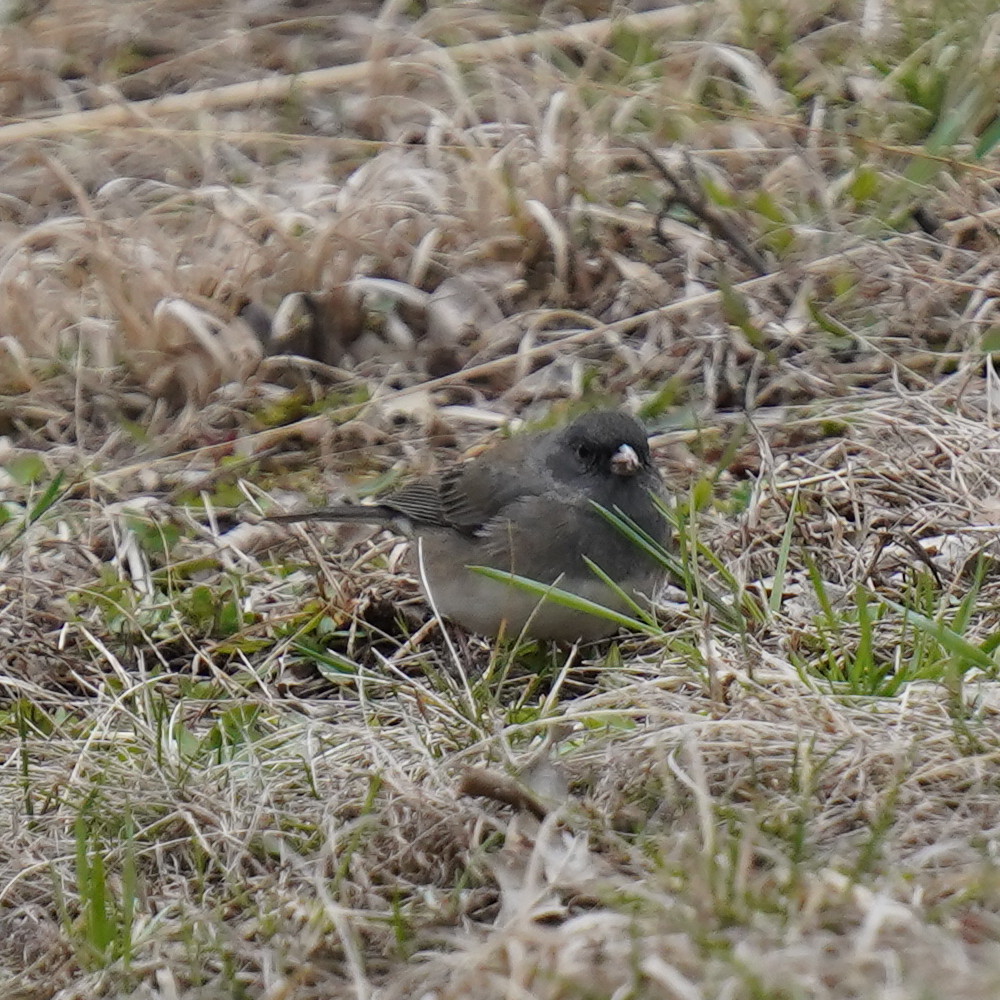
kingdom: Animalia
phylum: Chordata
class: Aves
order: Passeriformes
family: Passerellidae
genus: Junco
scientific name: Junco hyemalis
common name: Dark-eyed junco
